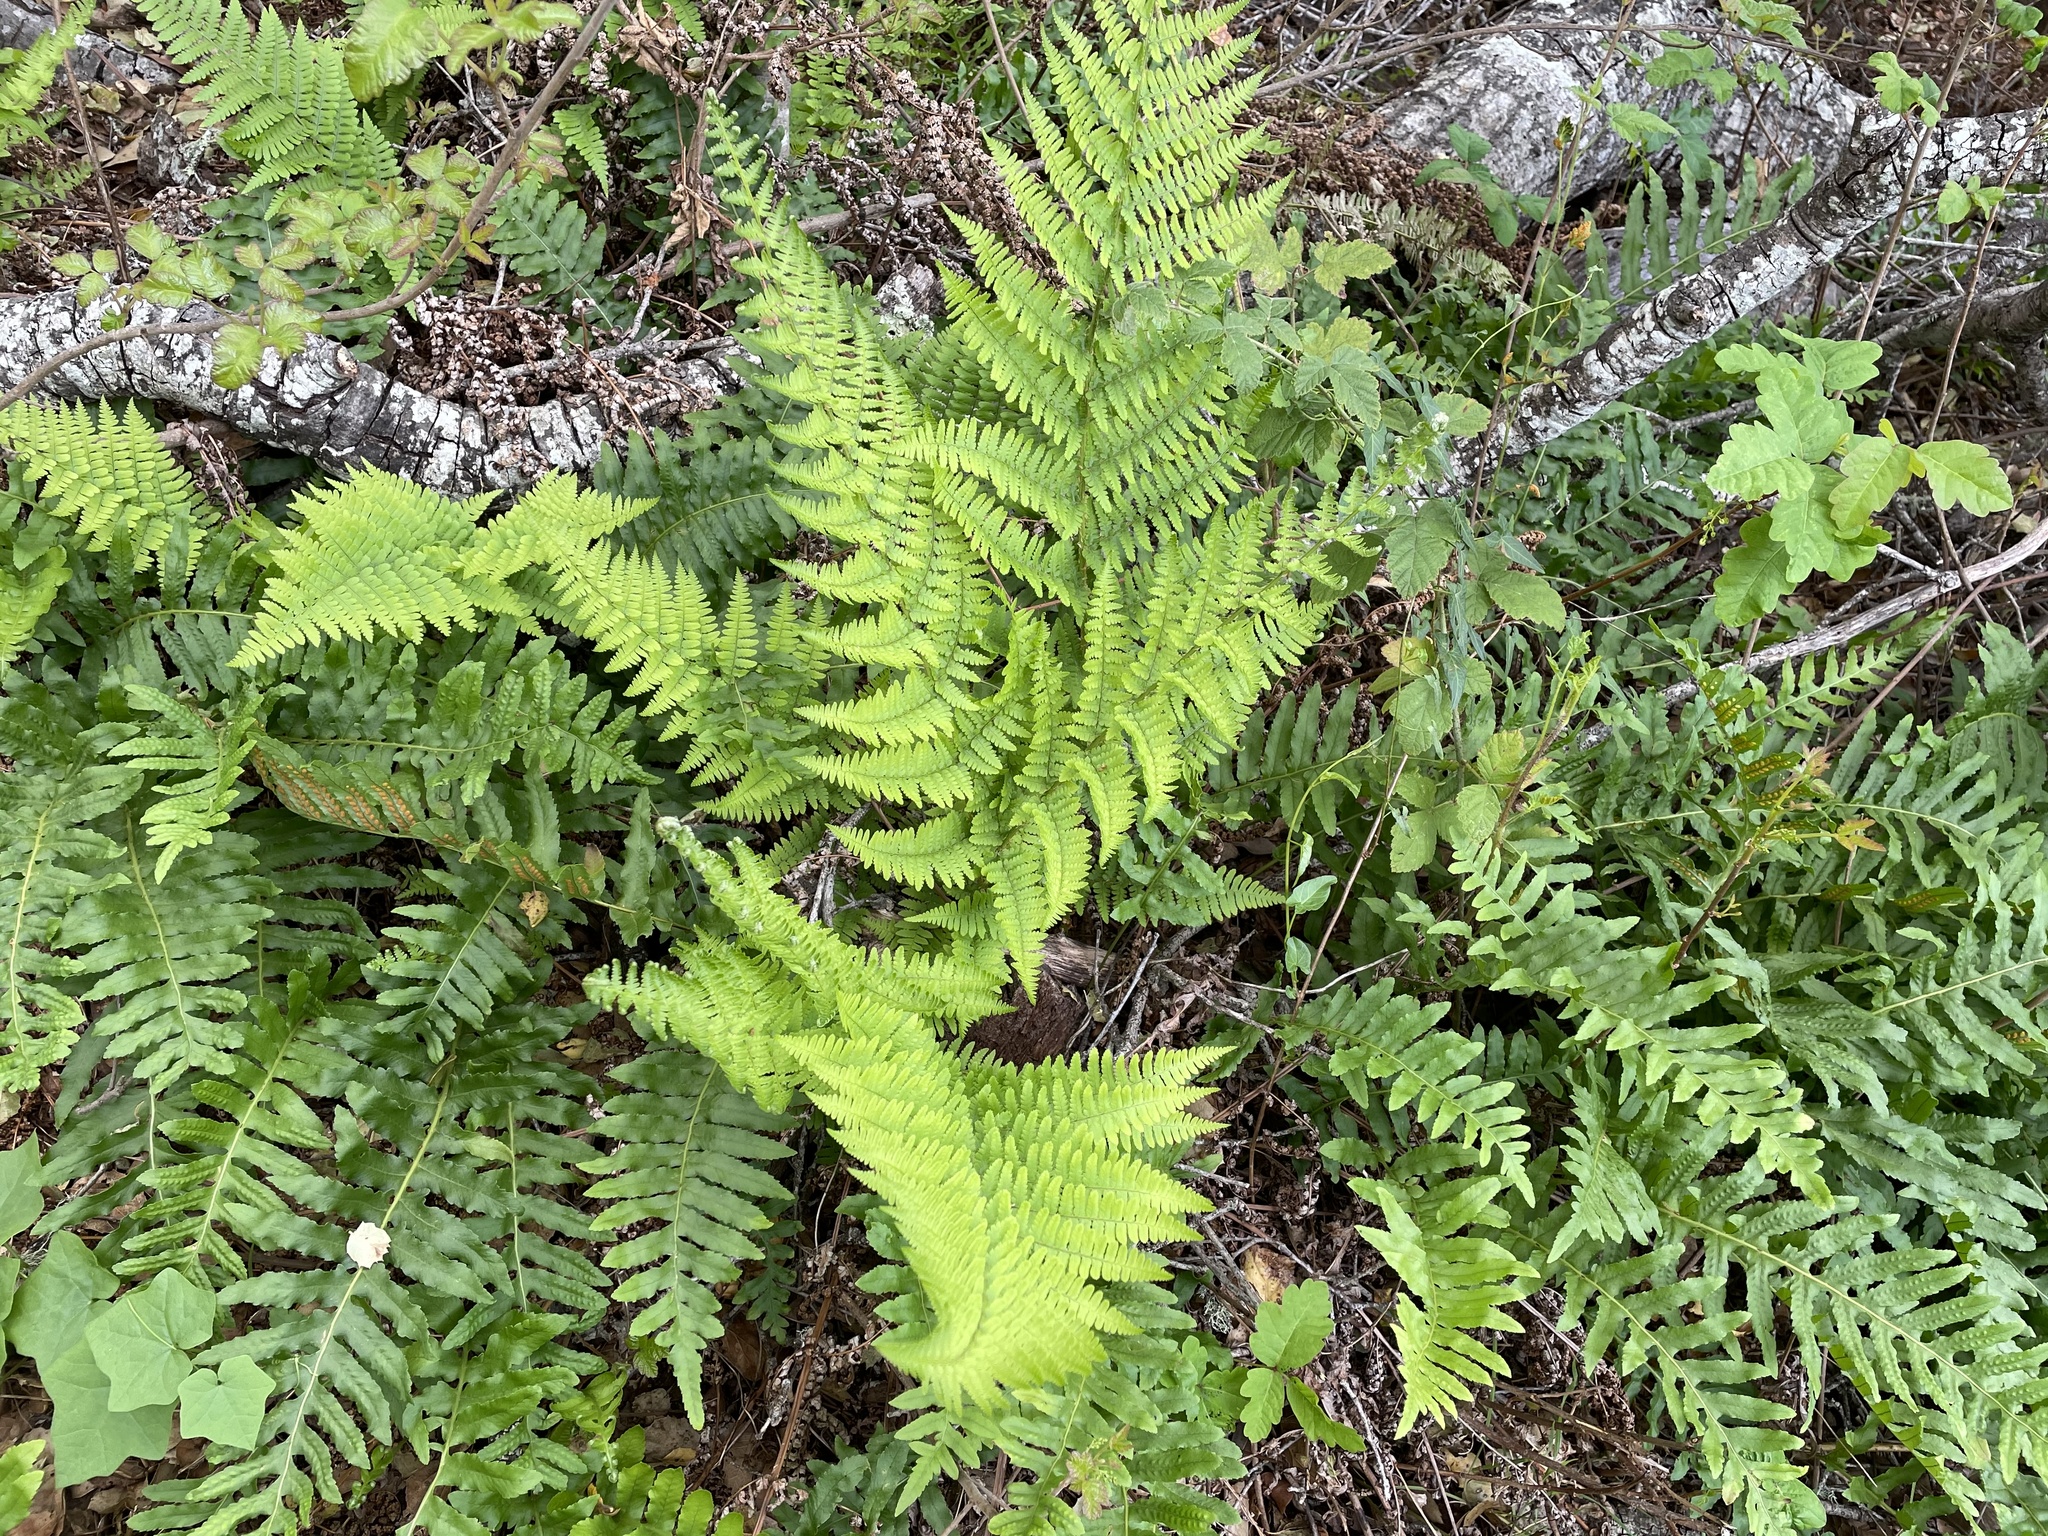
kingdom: Plantae
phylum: Tracheophyta
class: Polypodiopsida
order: Polypodiales
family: Dryopteridaceae
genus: Dryopteris
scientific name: Dryopteris arguta
